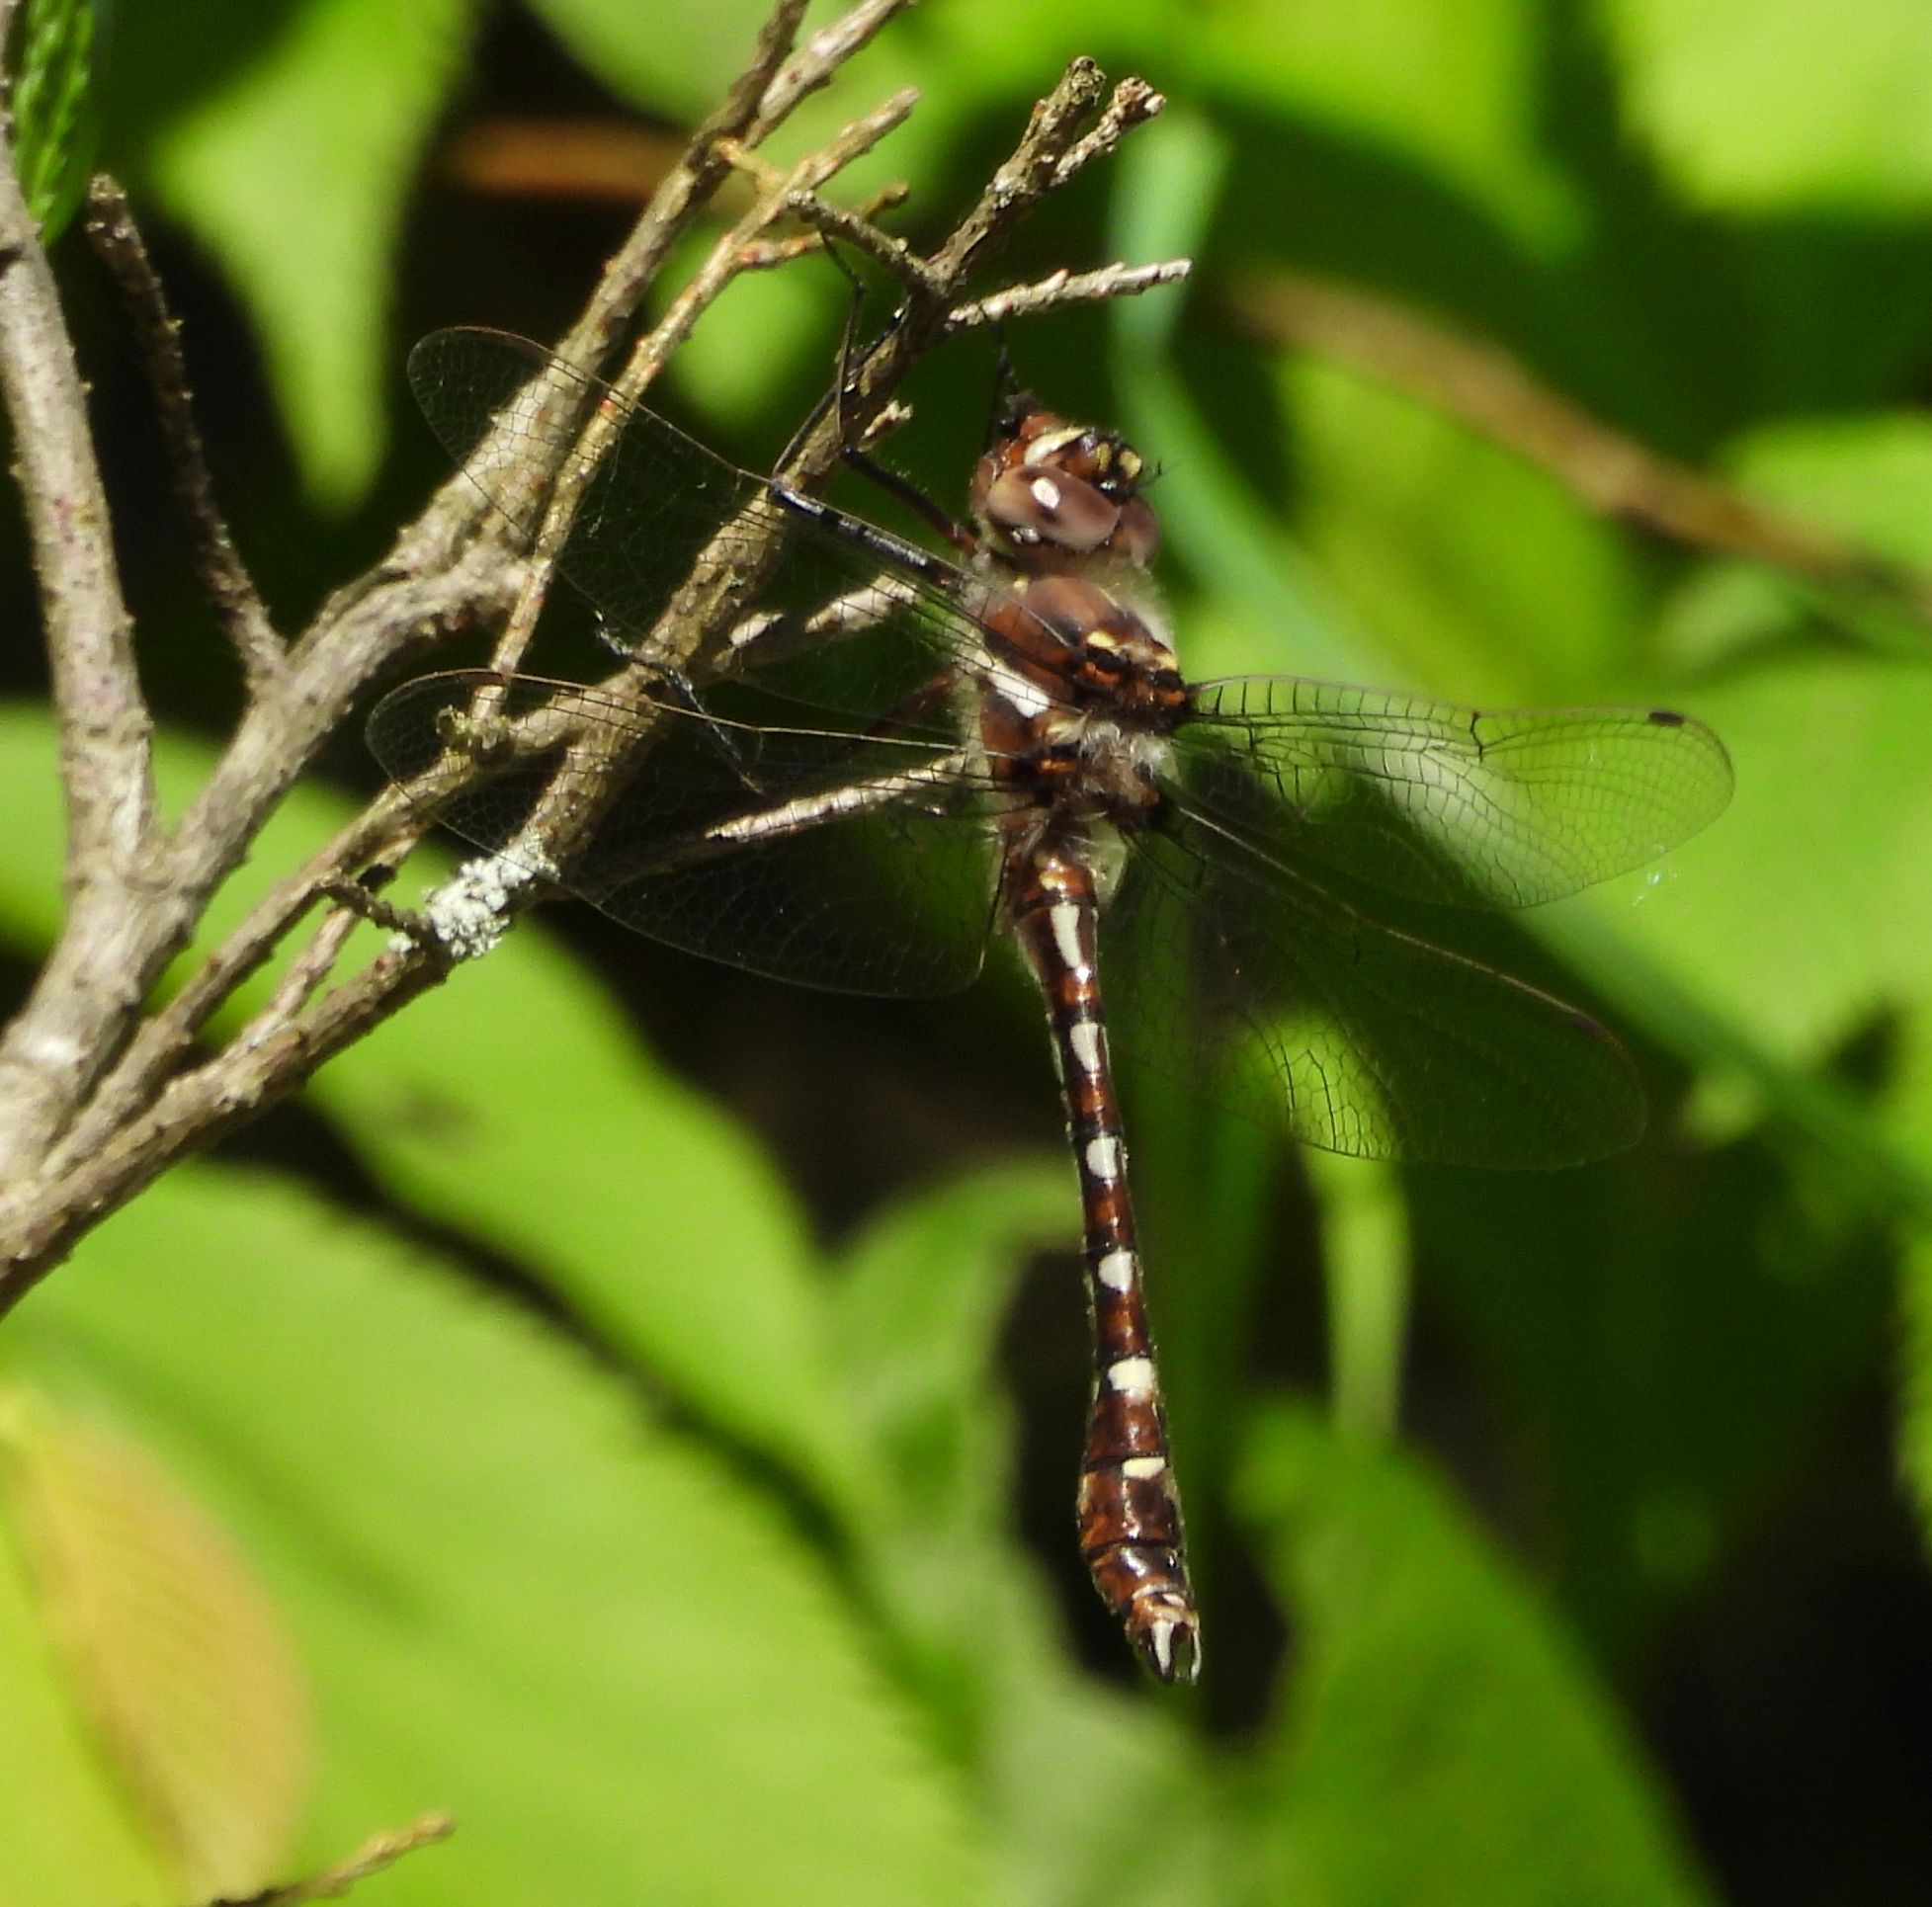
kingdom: Animalia
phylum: Arthropoda
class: Insecta
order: Odonata
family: Macromiidae
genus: Didymops
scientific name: Didymops transversa
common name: Stream cruiser
